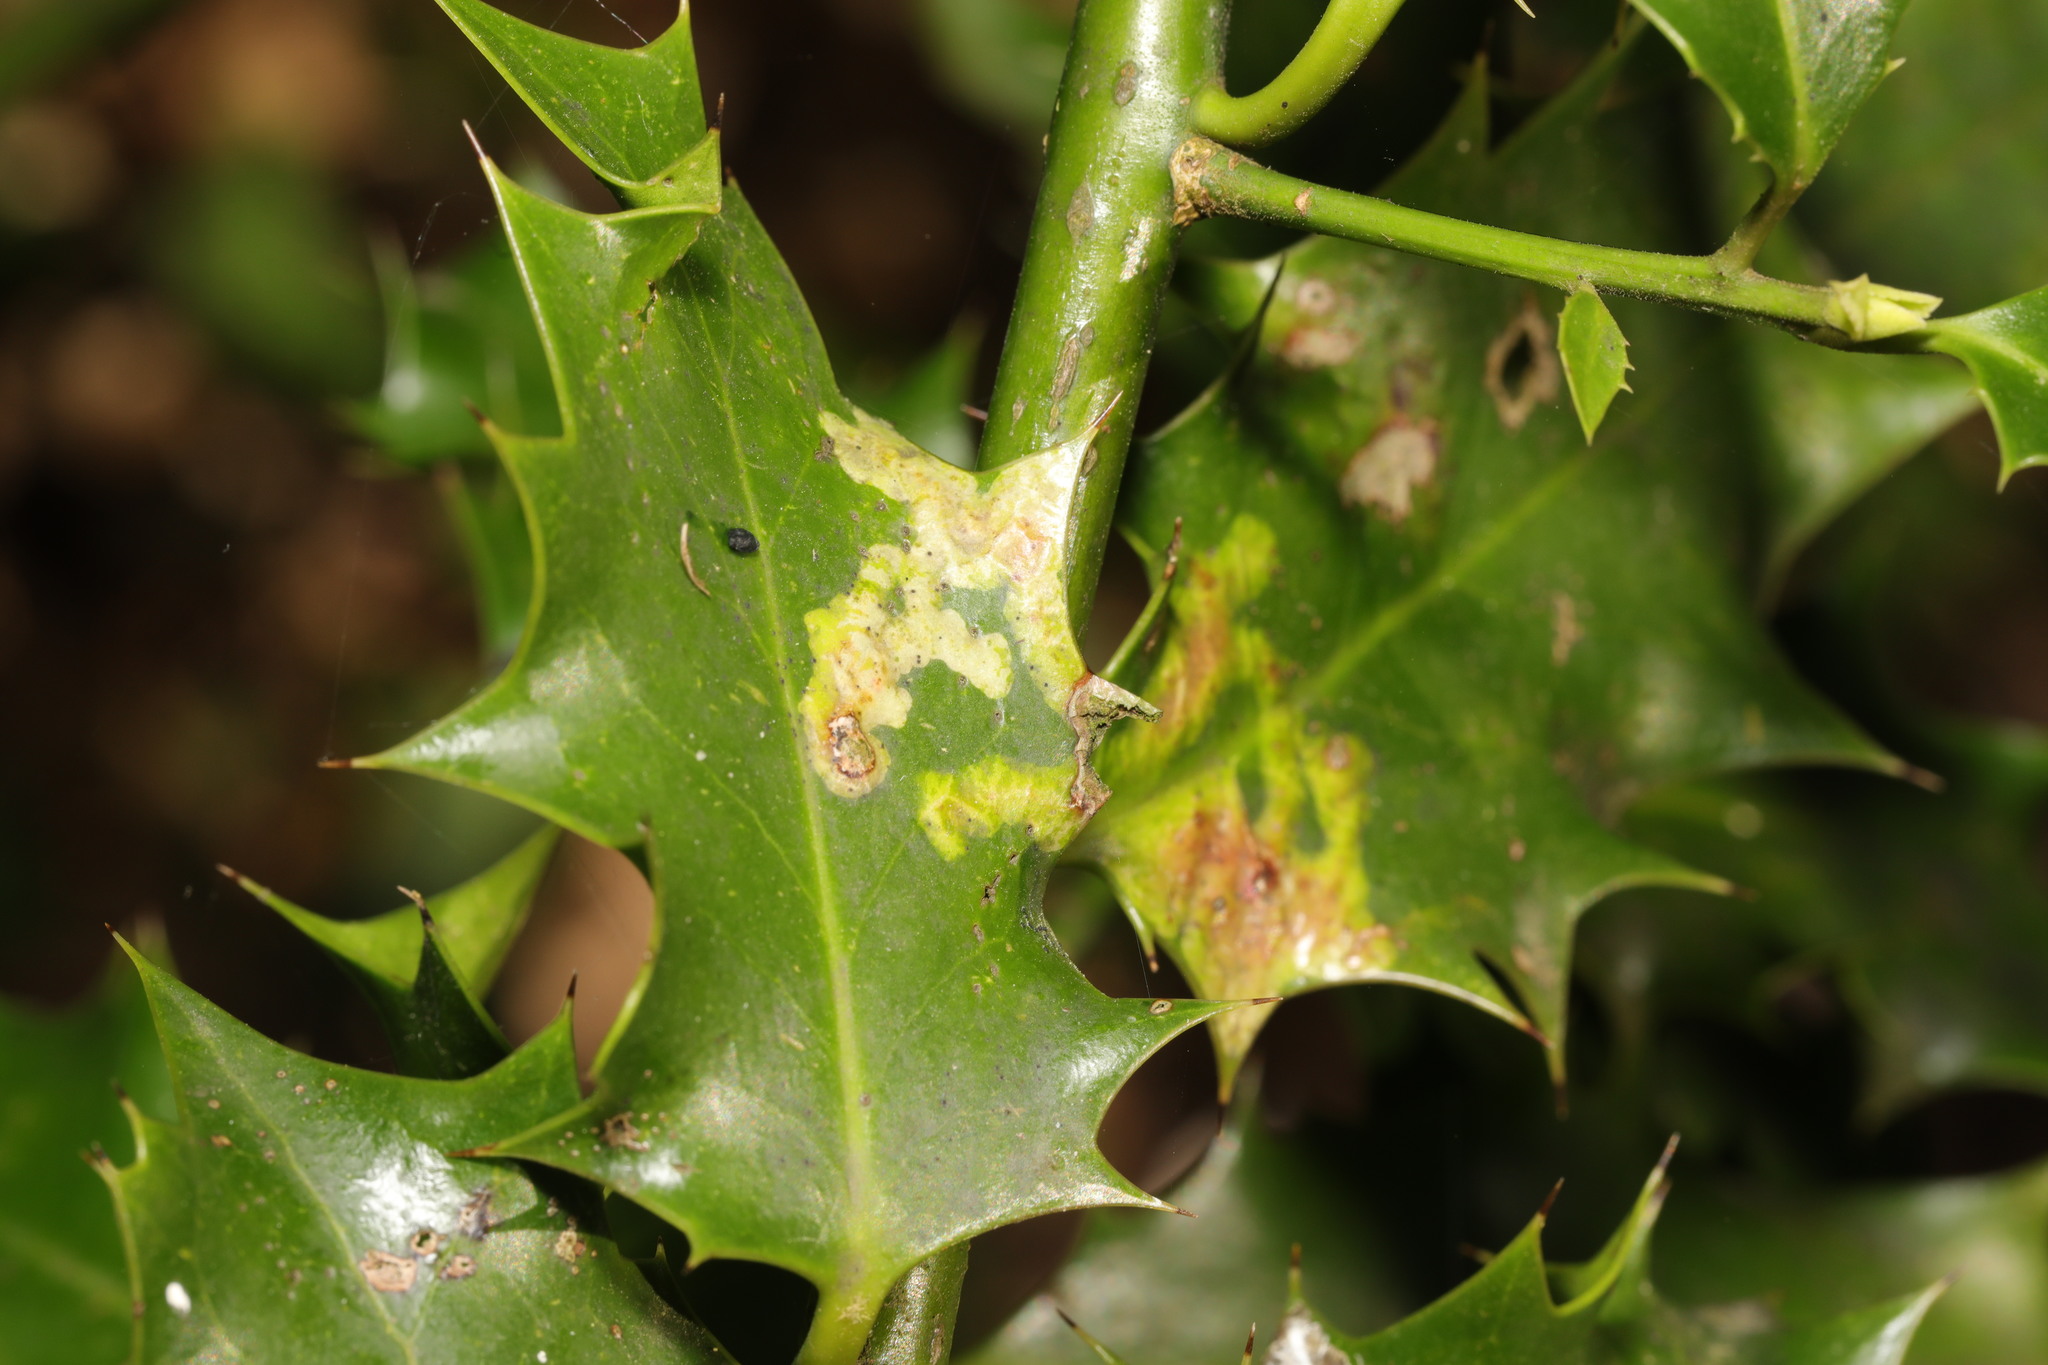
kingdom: Animalia
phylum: Arthropoda
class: Insecta
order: Diptera
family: Agromyzidae
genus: Phytomyza
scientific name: Phytomyza ilicis
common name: Holly leafminer
